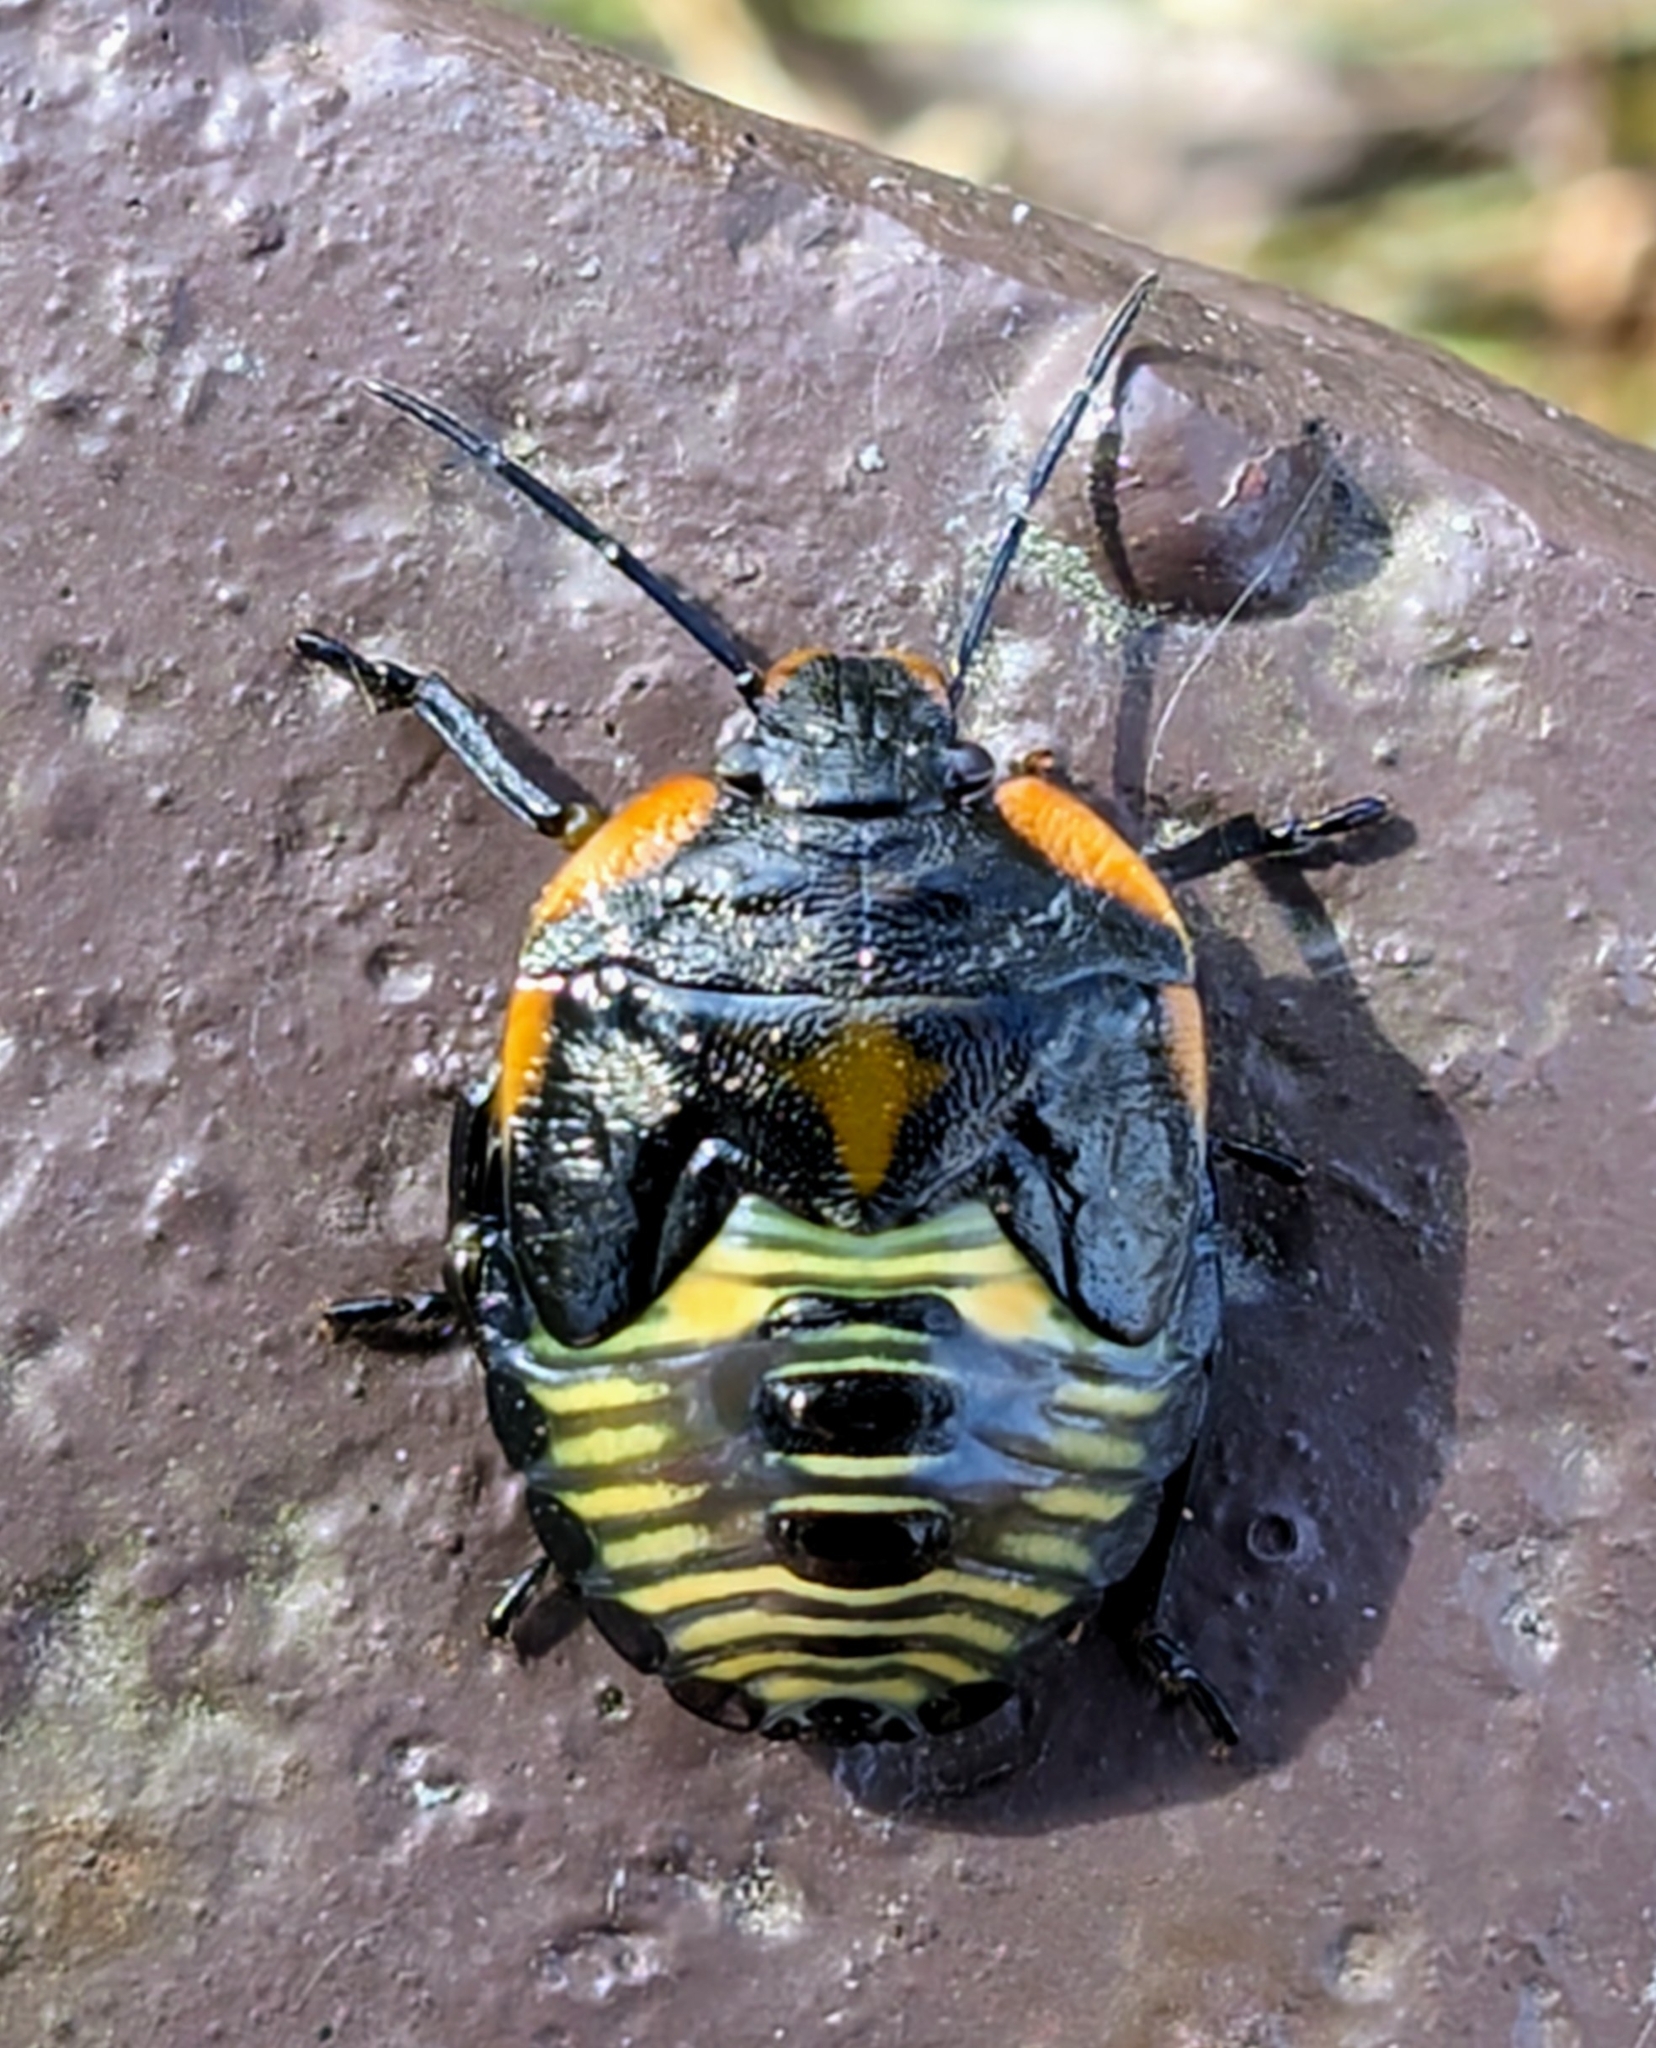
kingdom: Animalia
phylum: Arthropoda
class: Insecta
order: Hemiptera
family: Pentatomidae
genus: Chinavia
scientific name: Chinavia hilaris
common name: Green stink bug
